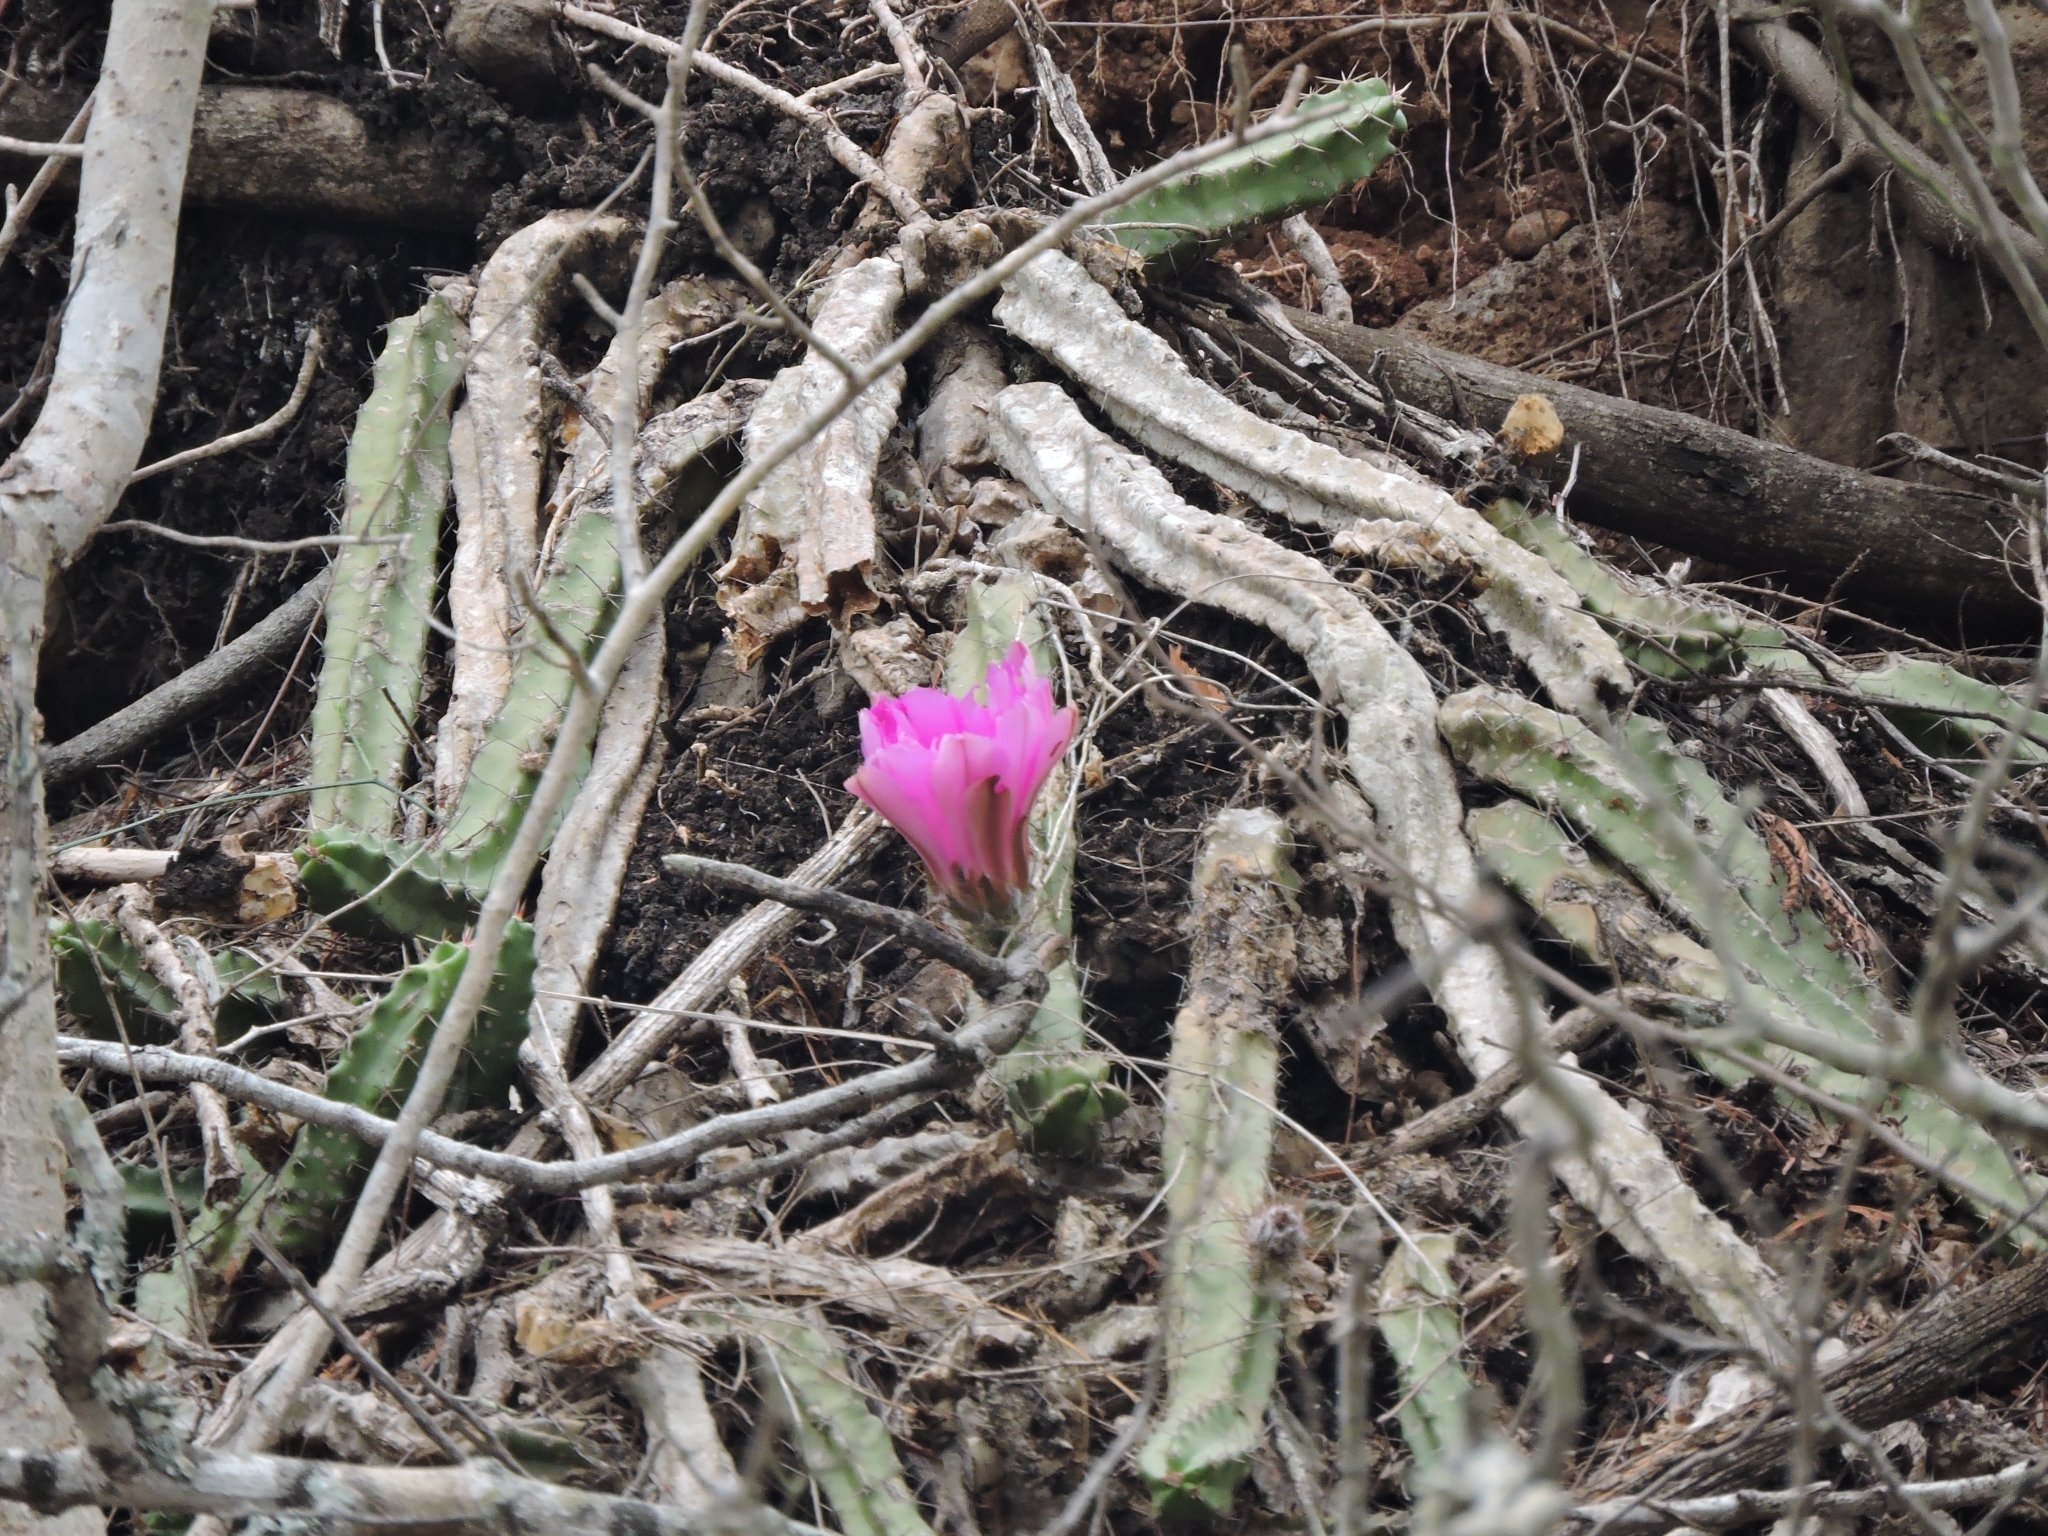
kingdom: Plantae
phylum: Tracheophyta
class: Magnoliopsida
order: Caryophyllales
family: Cactaceae
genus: Echinocereus
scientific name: Echinocereus pentalophus
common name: Ladyfinger cactus
